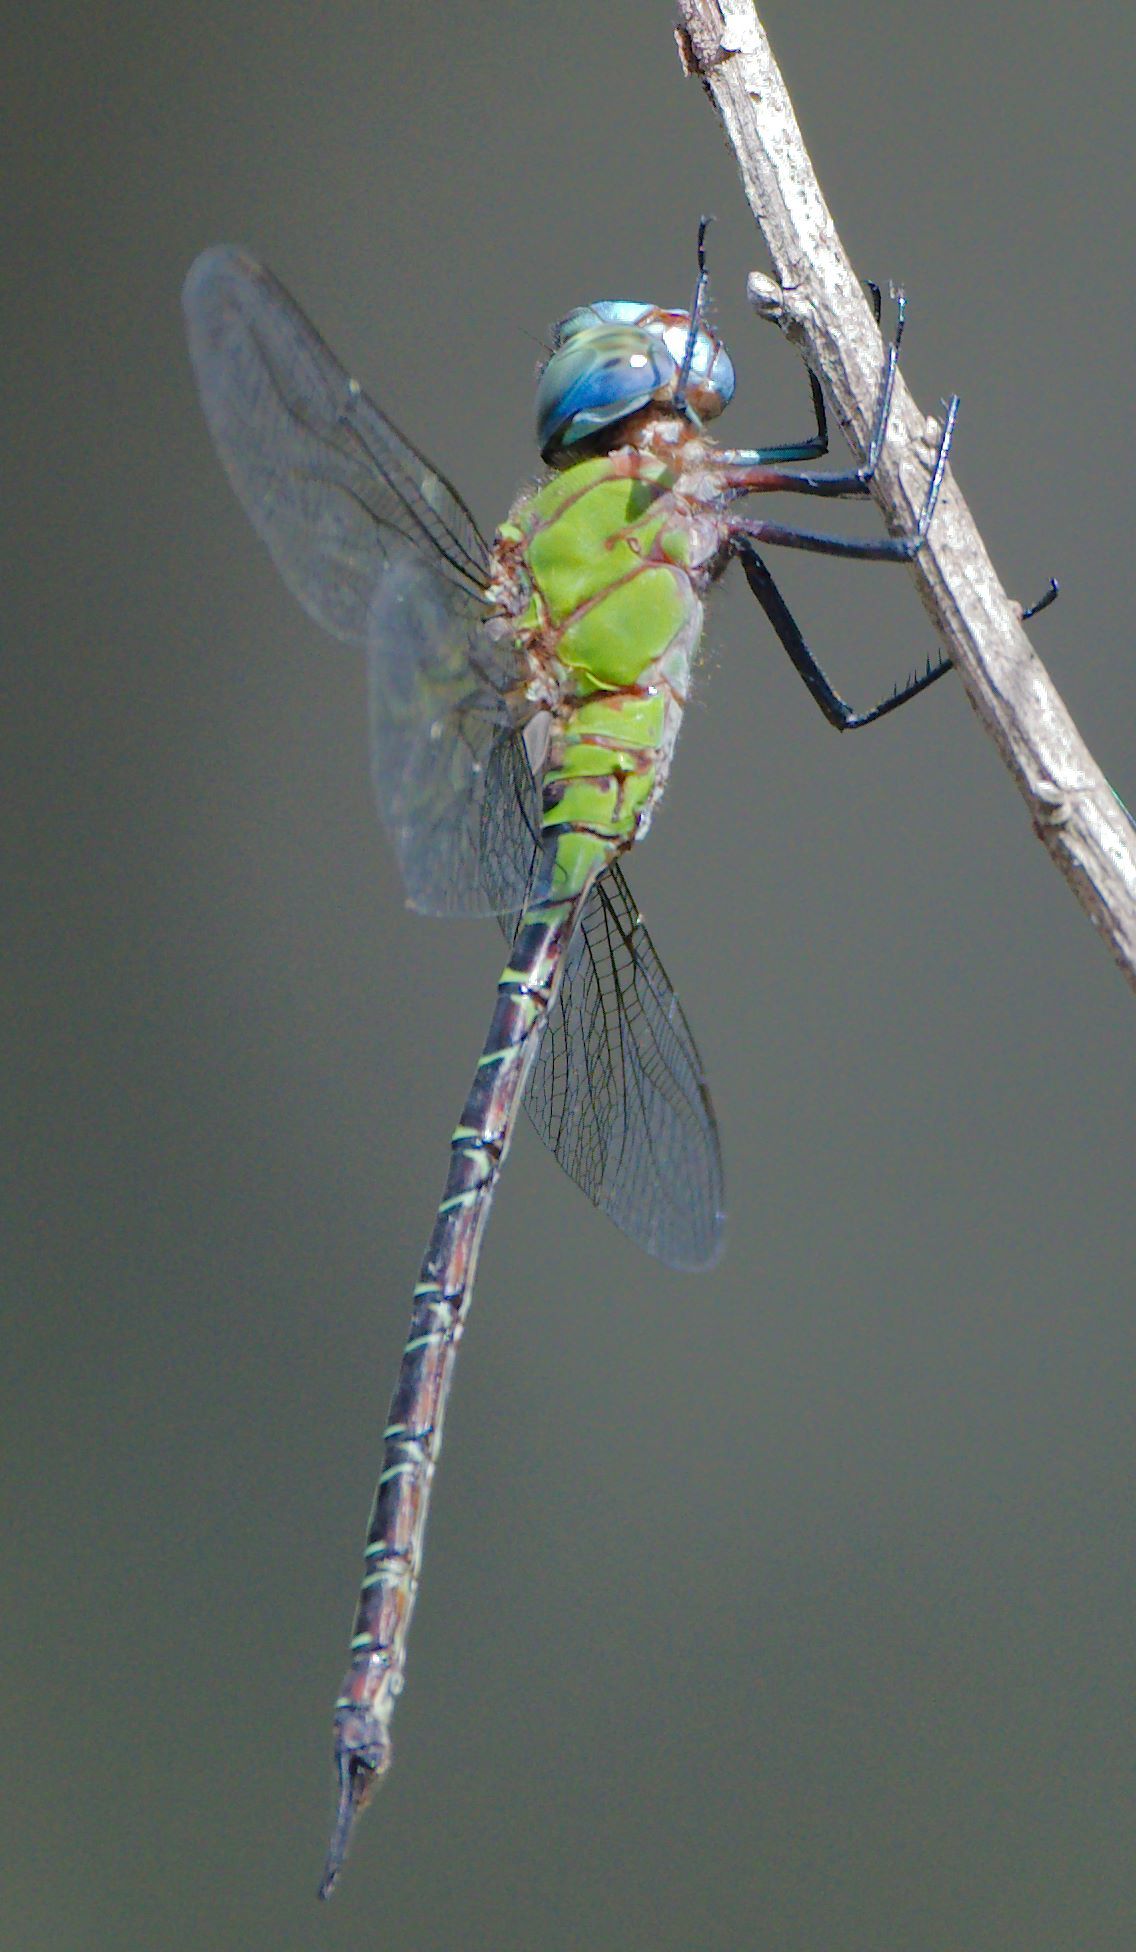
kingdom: Animalia
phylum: Arthropoda
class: Insecta
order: Odonata
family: Aeshnidae
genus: Coryphaeschna
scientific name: Coryphaeschna adnexa
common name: Blue-faced darner
